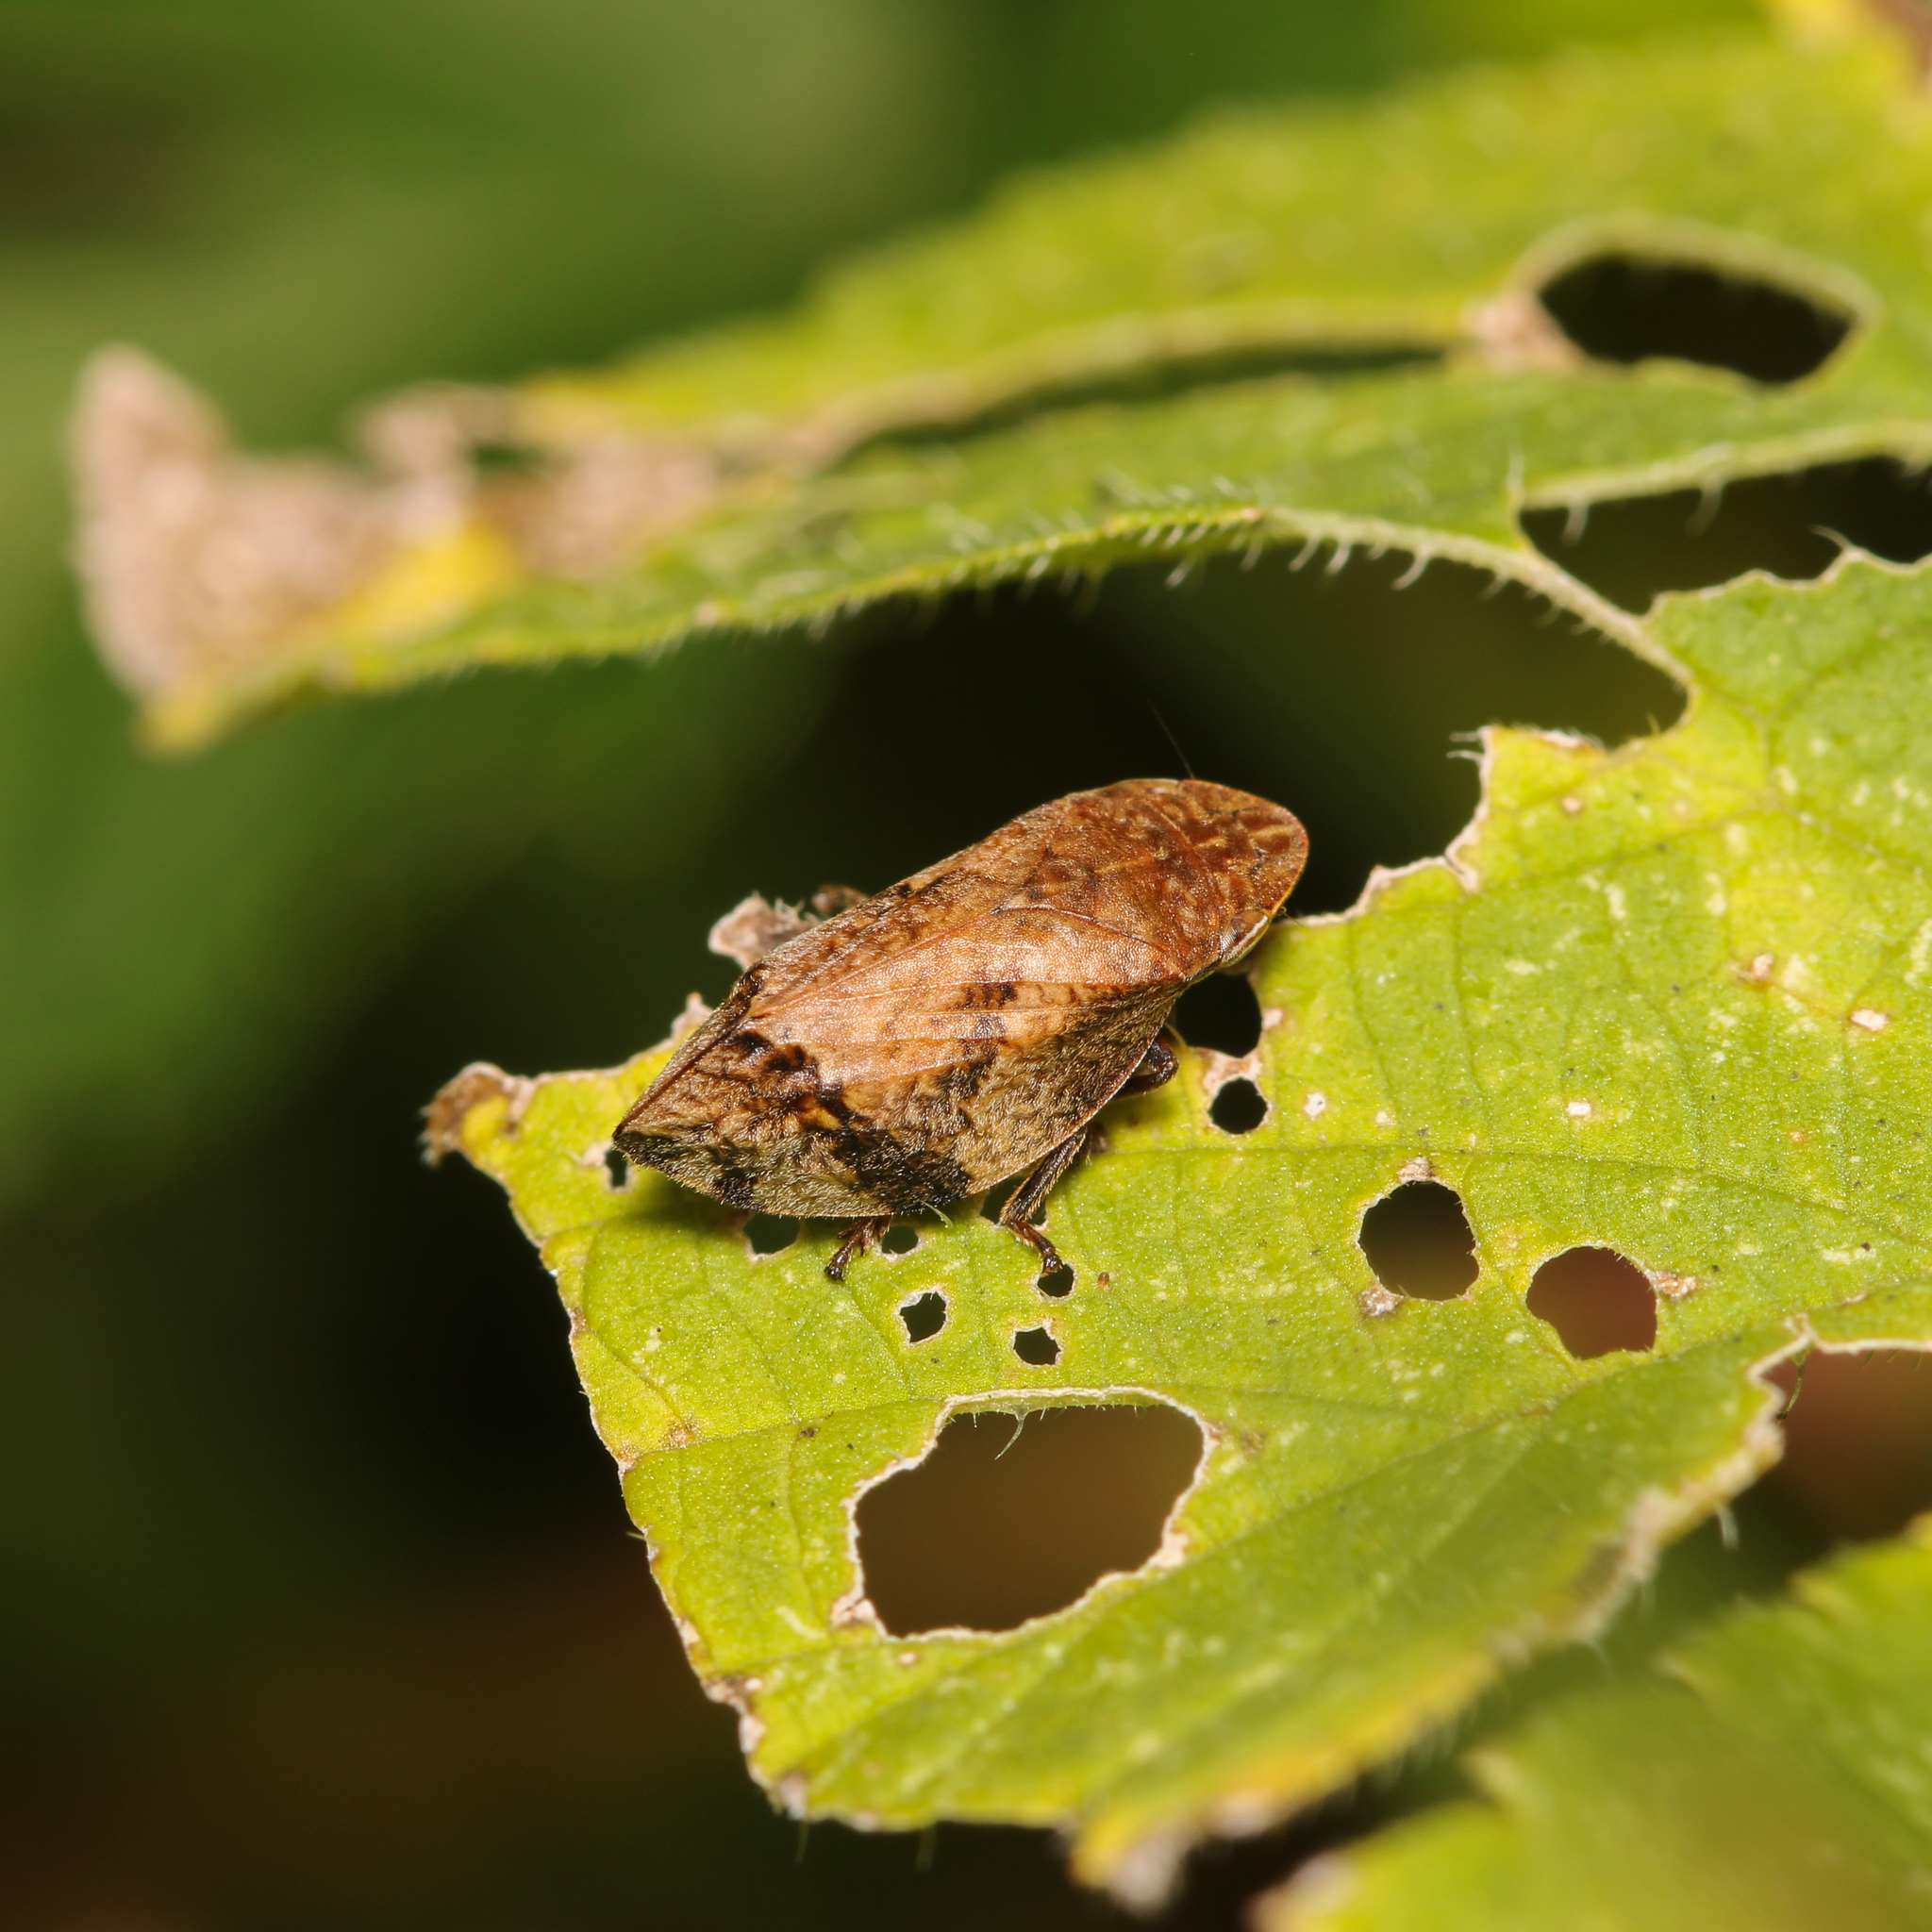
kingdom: Animalia
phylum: Arthropoda
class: Insecta
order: Hemiptera
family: Aphrophoridae
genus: Lepyronia
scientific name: Lepyronia quadrangularis
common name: Diamond-backed spittlebug
